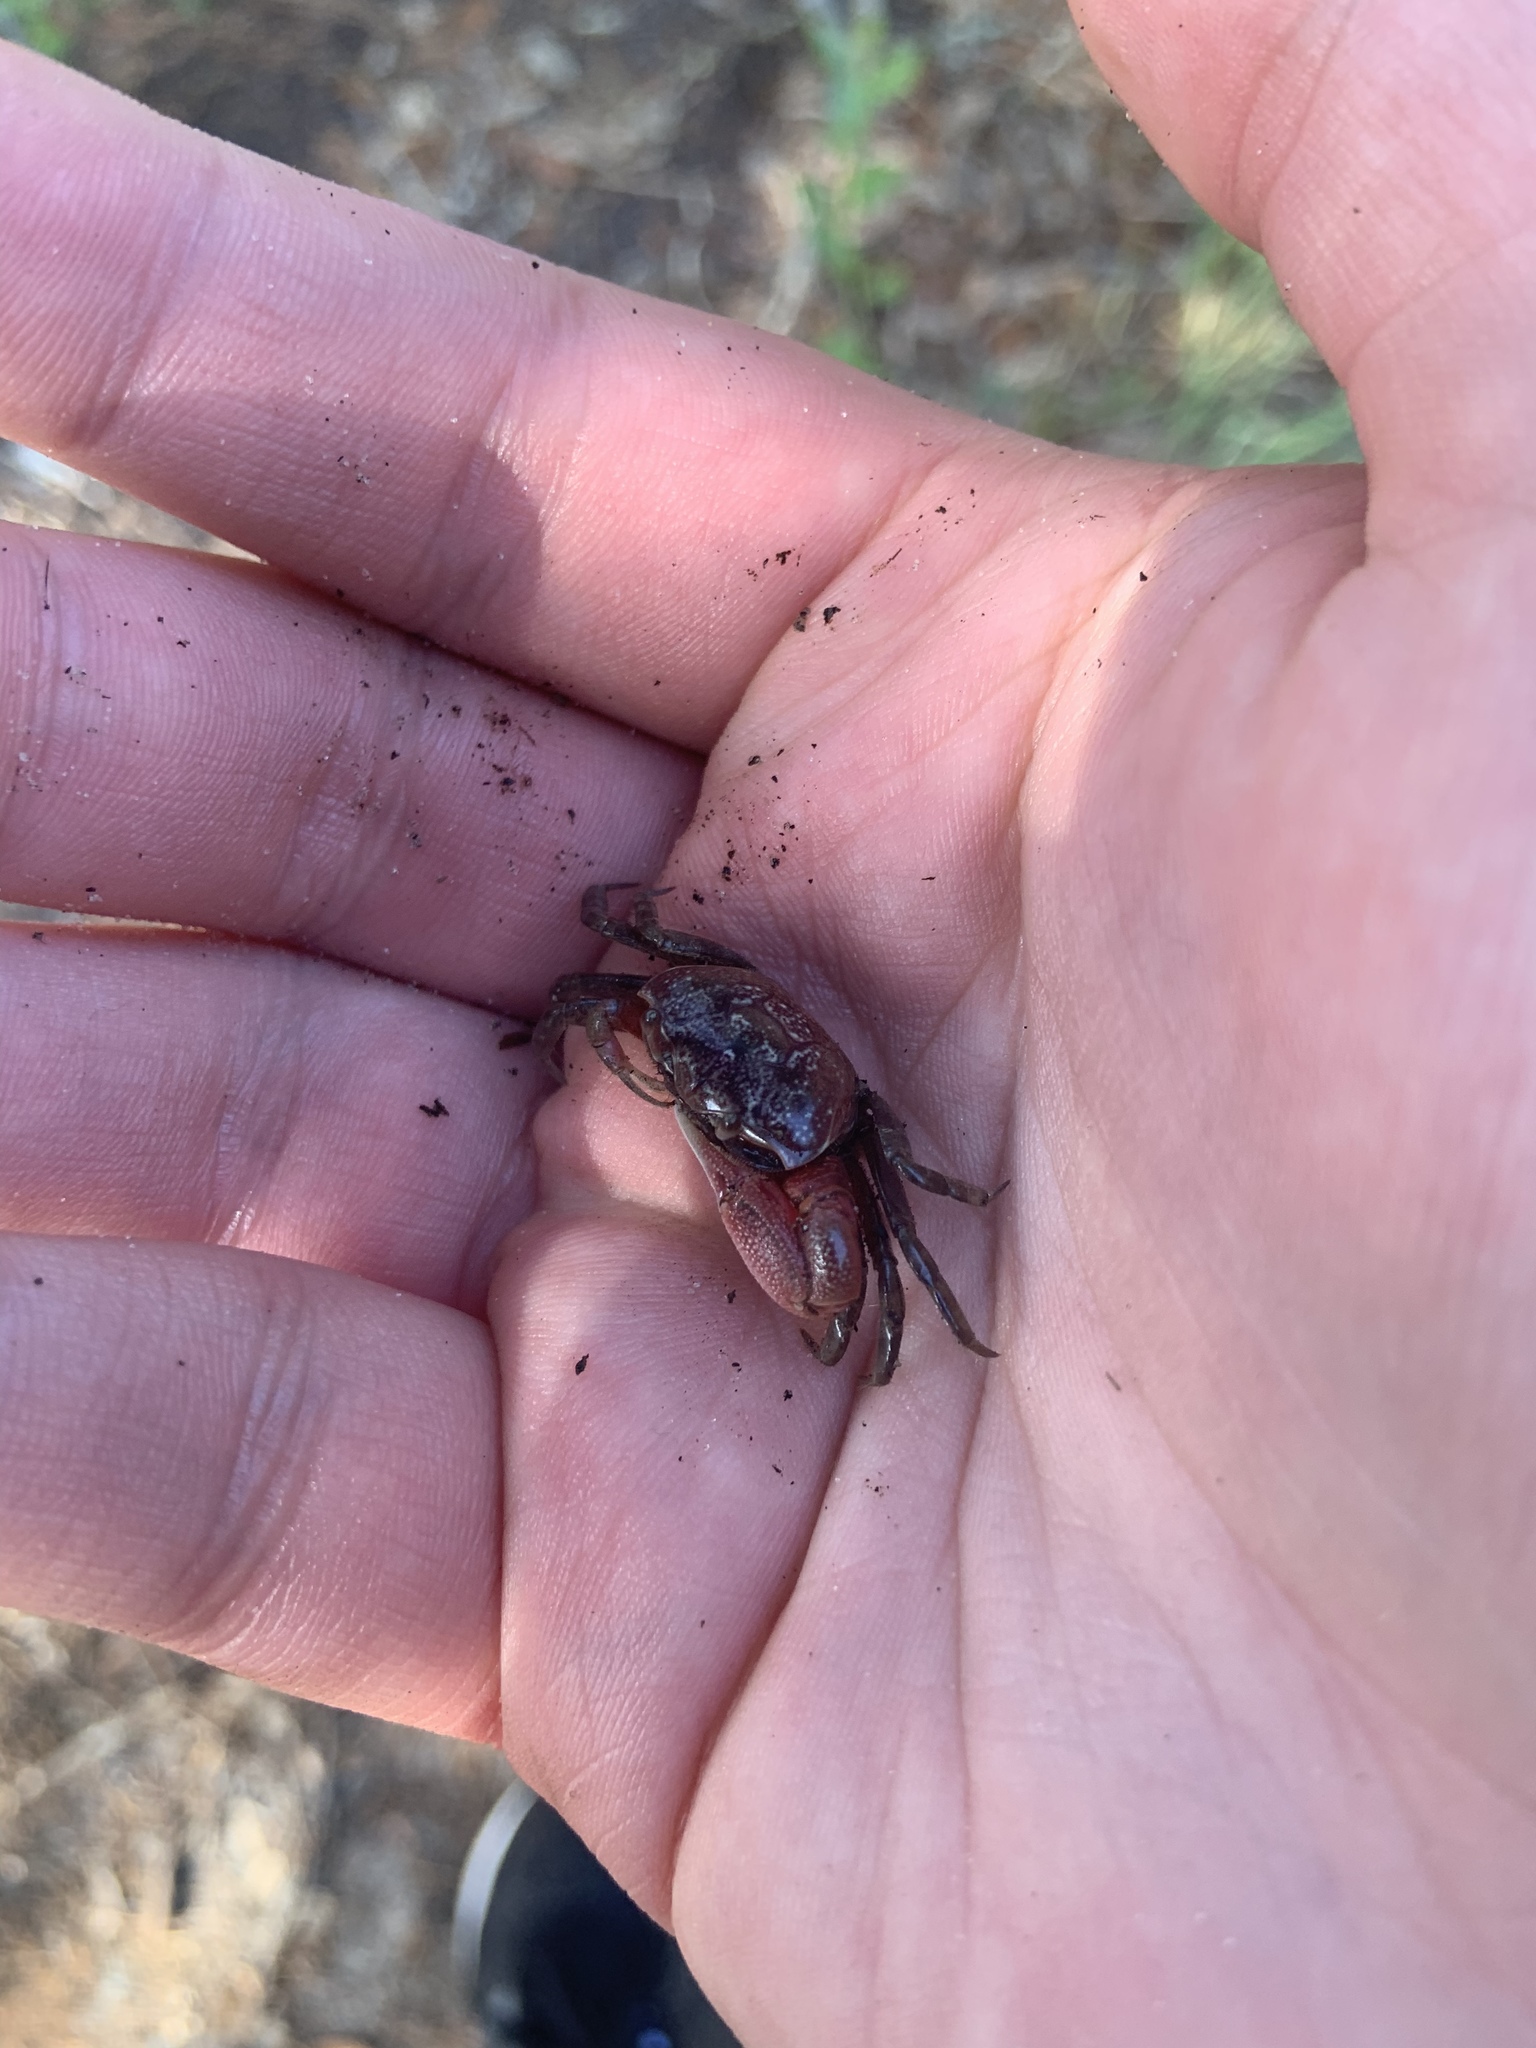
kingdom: Animalia
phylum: Arthropoda
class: Malacostraca
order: Decapoda
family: Ocypodidae
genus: Leptuca
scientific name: Leptuca pugilator
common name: Atlantic sand fiddler crab
